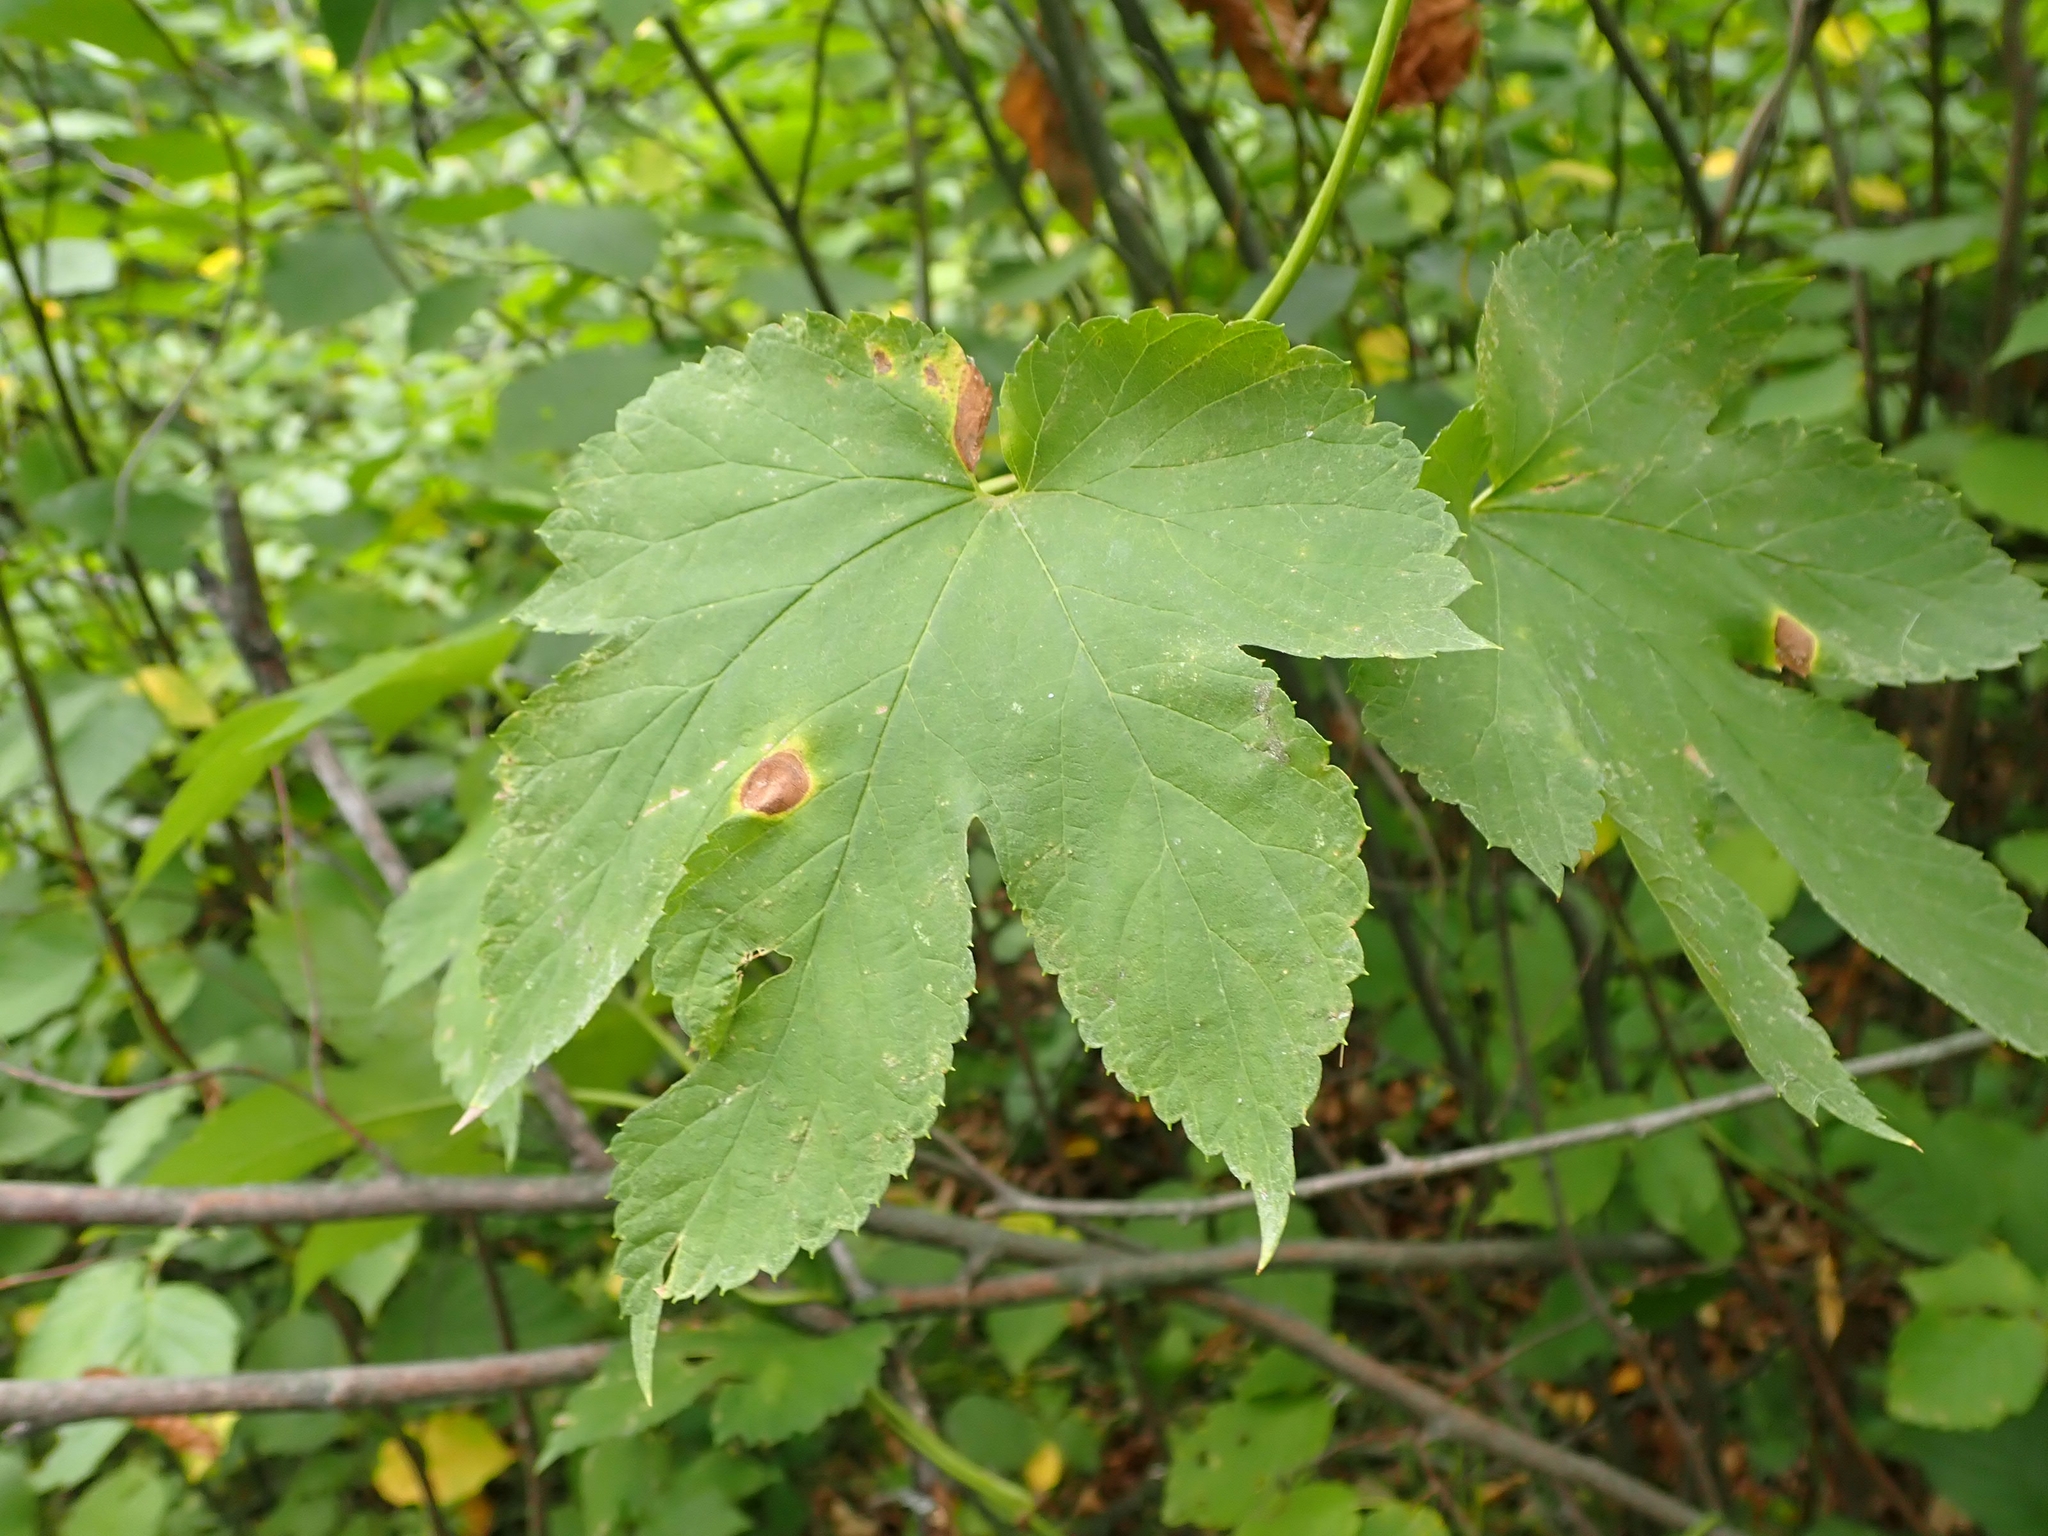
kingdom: Plantae
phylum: Tracheophyta
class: Magnoliopsida
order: Rosales
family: Cannabaceae
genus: Humulus
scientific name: Humulus lupulus
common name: Hop
